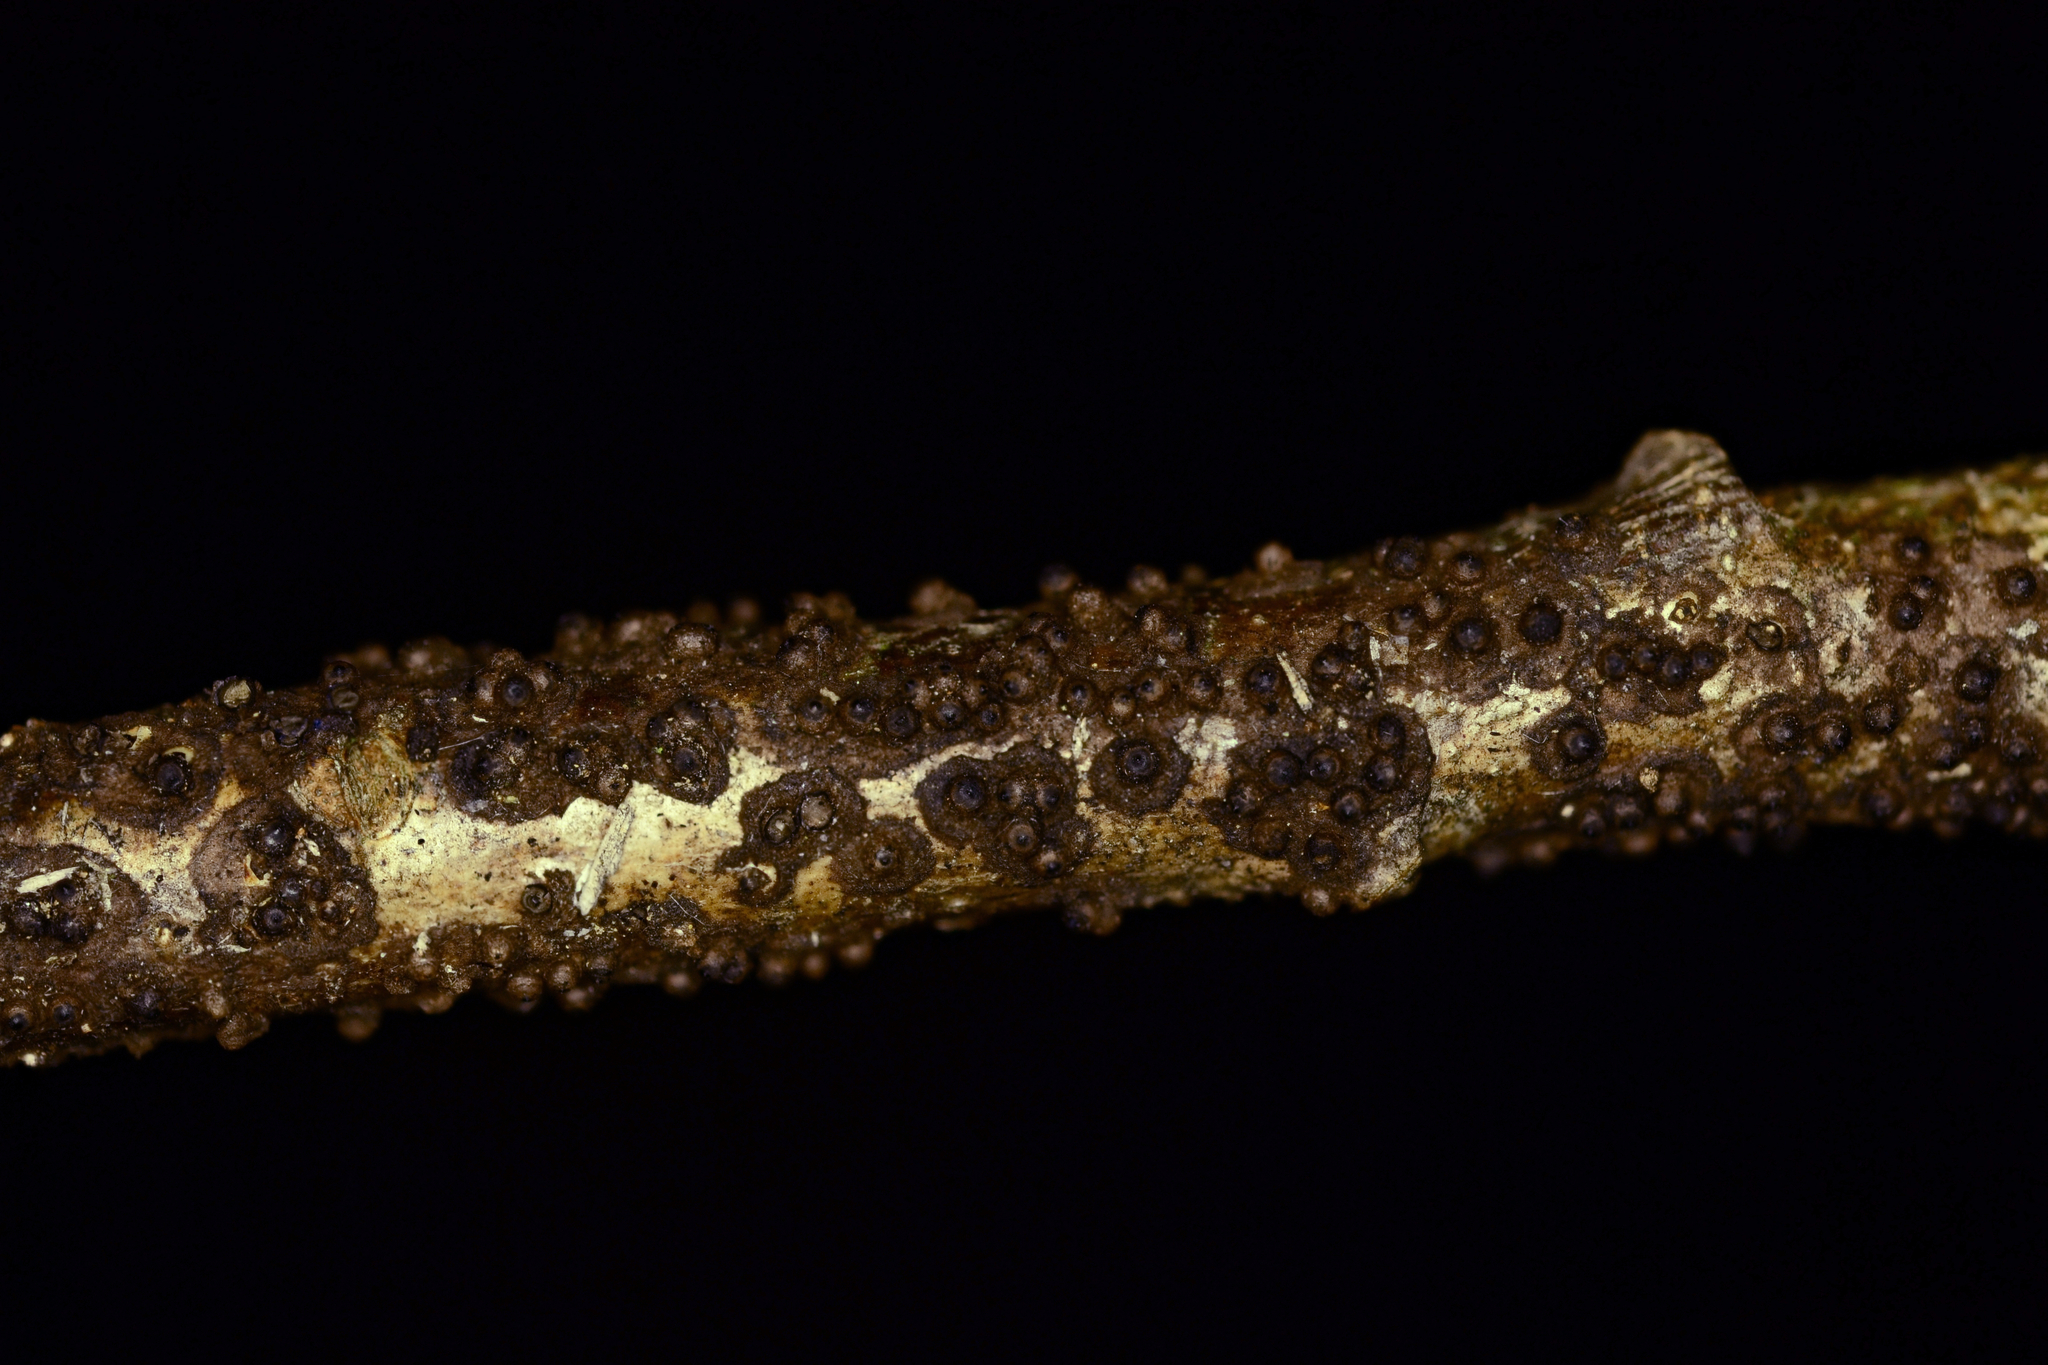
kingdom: Fungi
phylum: Ascomycota
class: Sordariomycetes
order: Xylariales
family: Xylariaceae
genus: Rosellinia
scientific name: Rosellinia corticium
